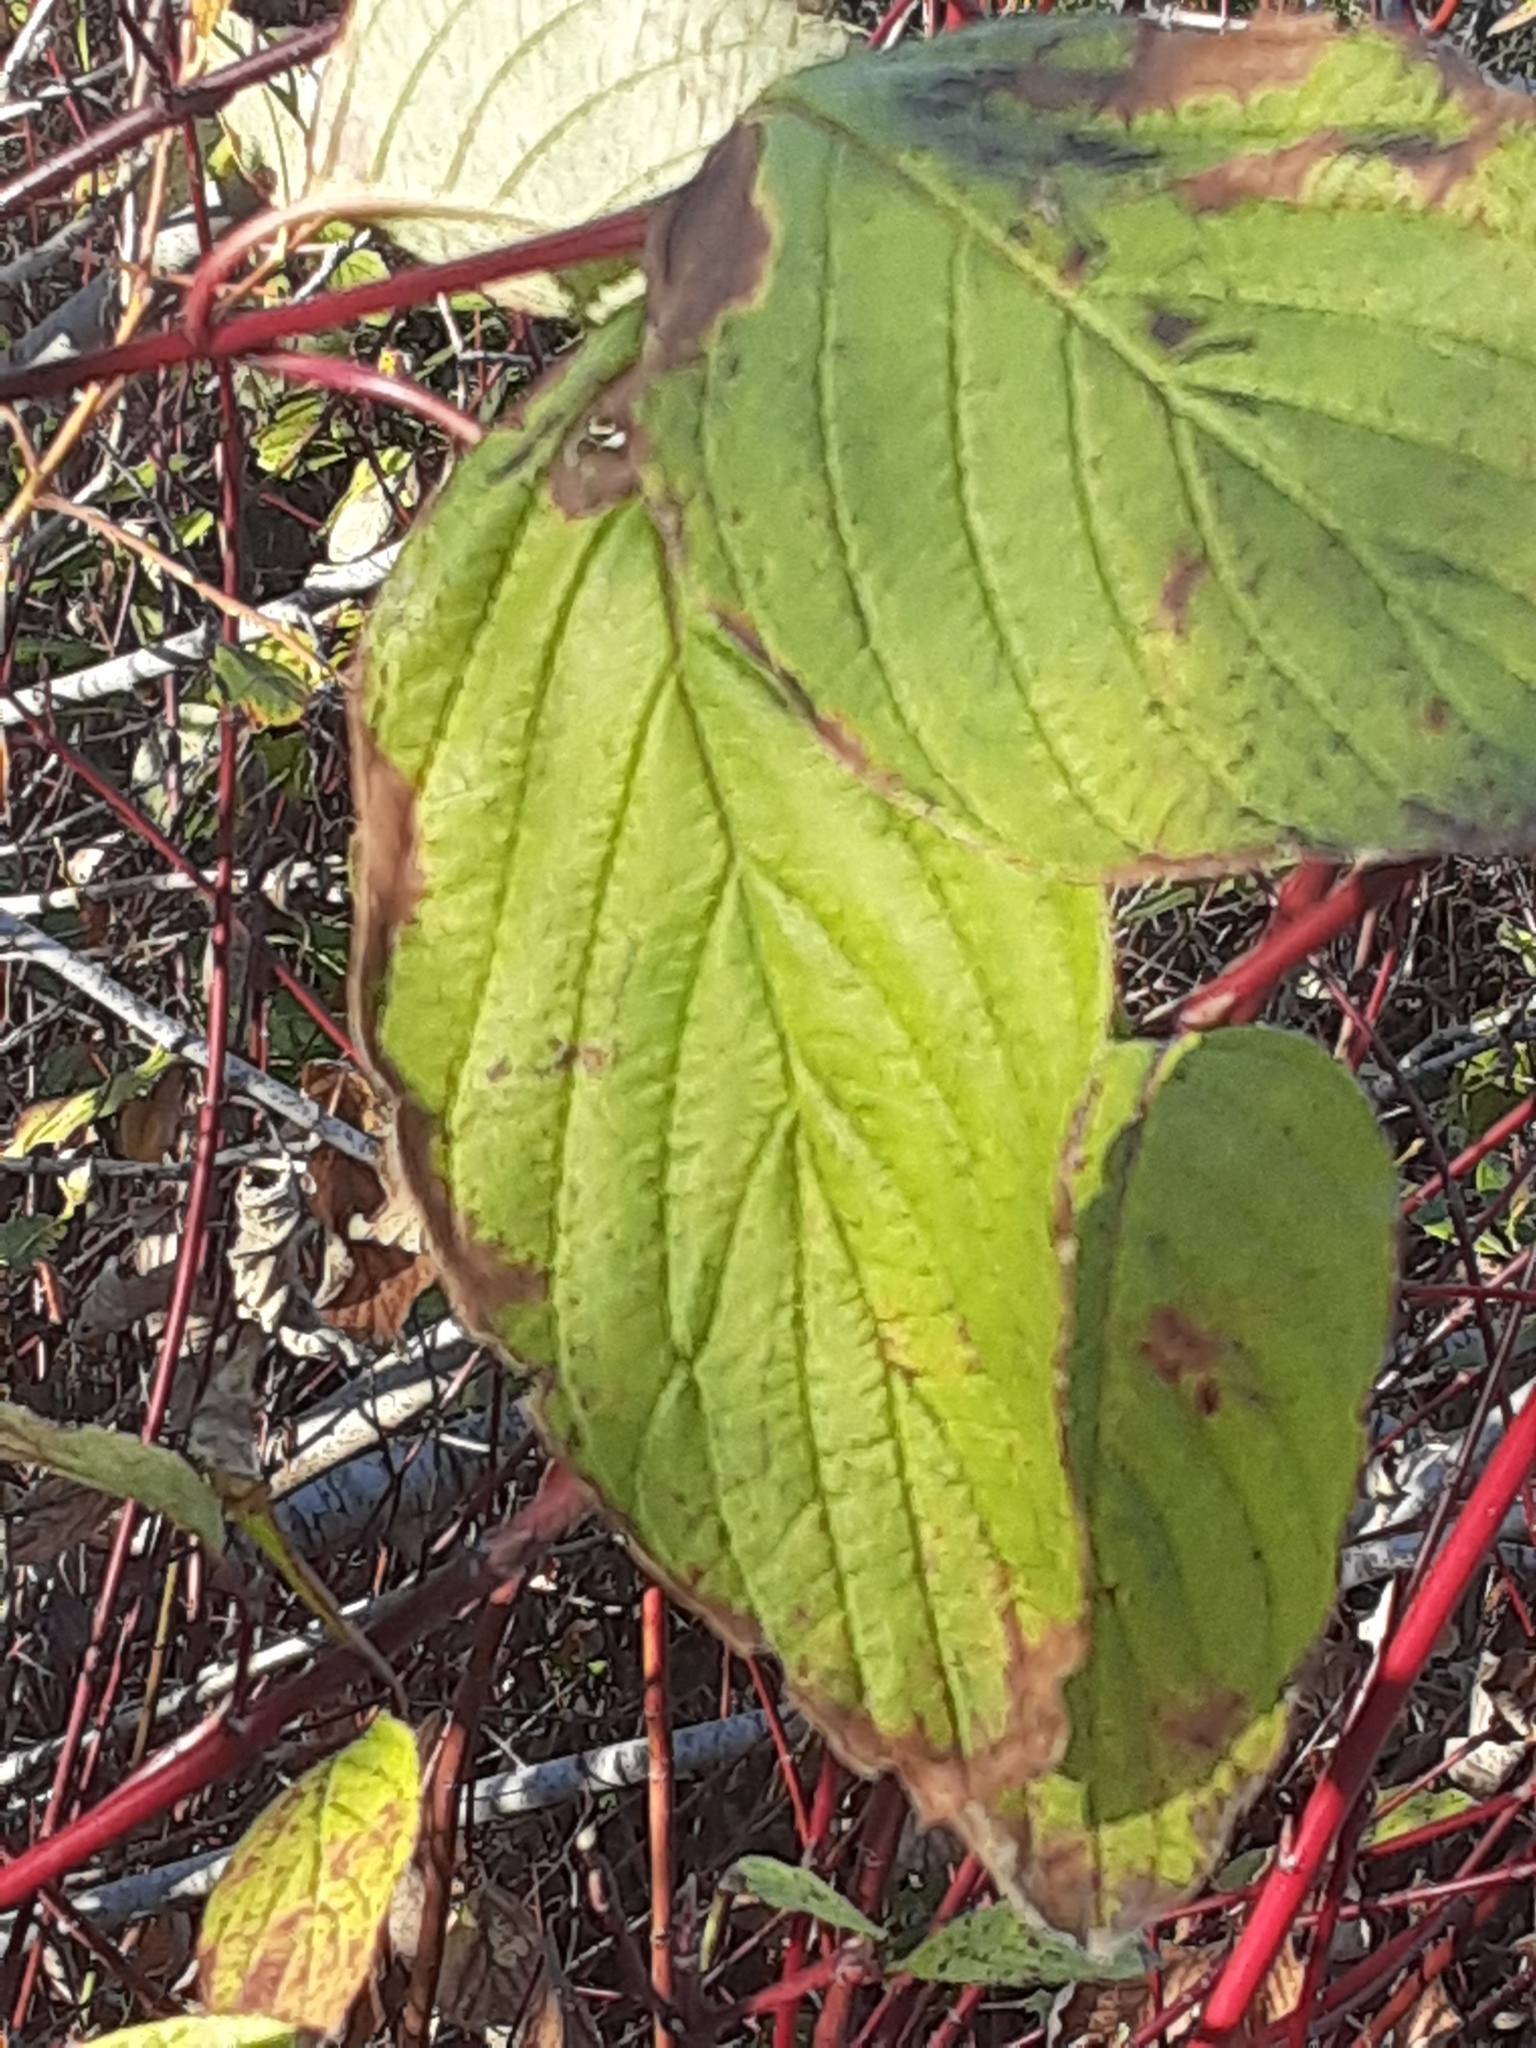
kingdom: Plantae
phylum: Tracheophyta
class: Magnoliopsida
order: Cornales
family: Cornaceae
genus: Cornus
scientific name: Cornus sericea
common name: Red-osier dogwood
